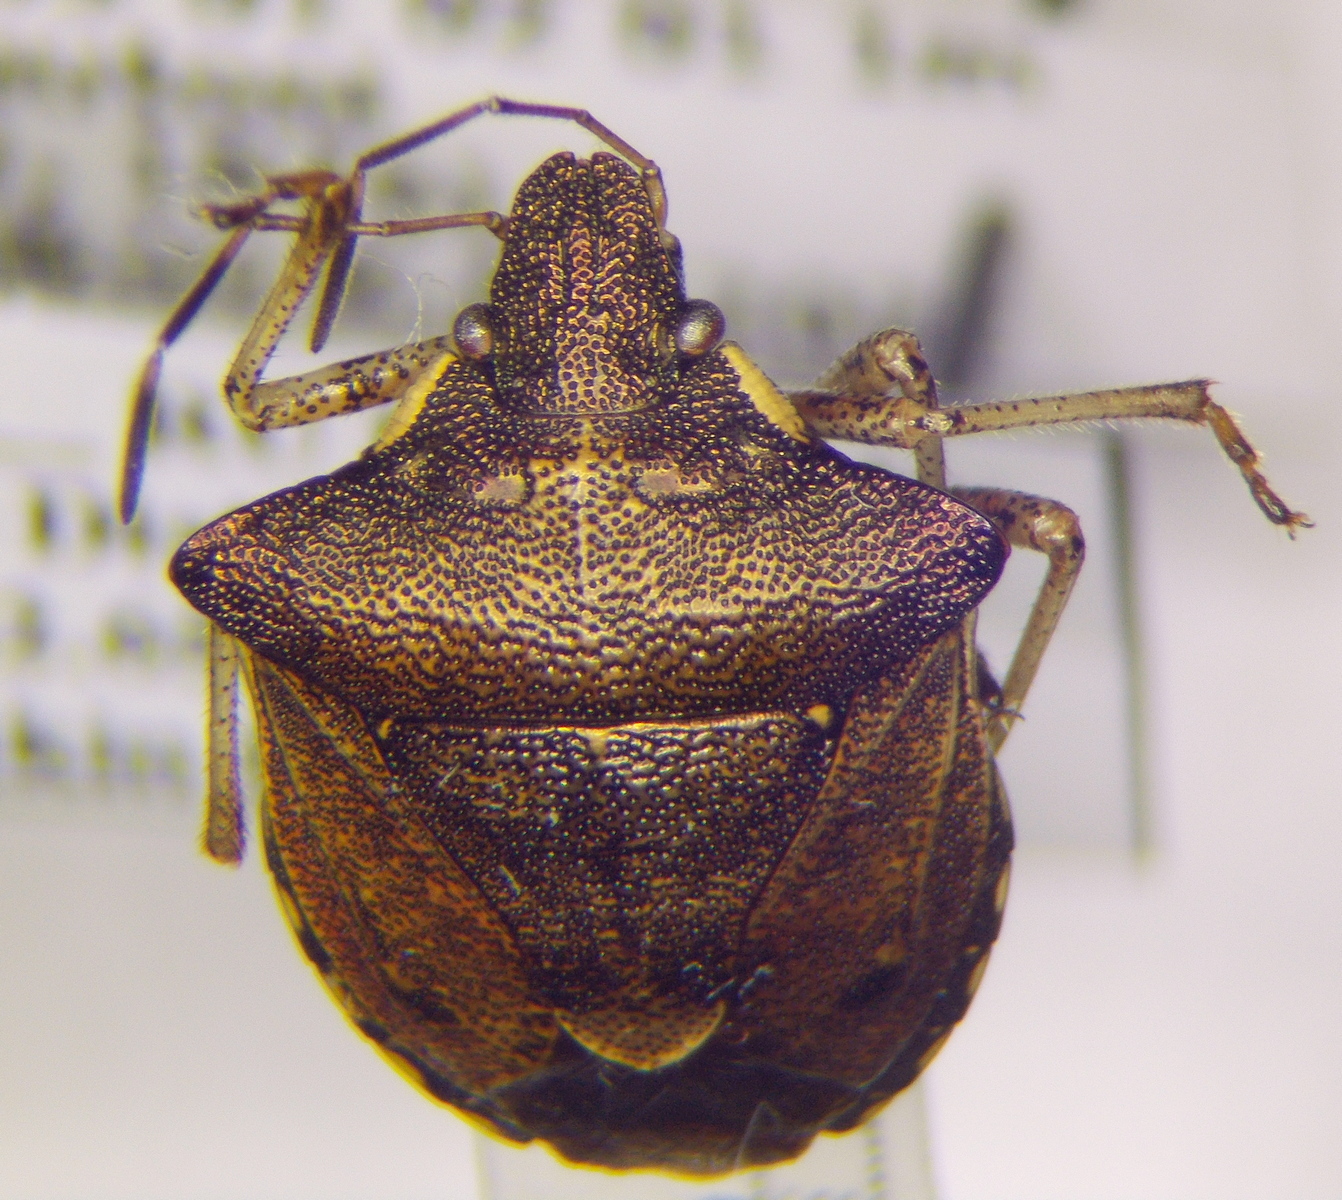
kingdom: Animalia
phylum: Arthropoda
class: Insecta
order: Hemiptera
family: Pentatomidae
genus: Carbula
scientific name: Carbula putoni
